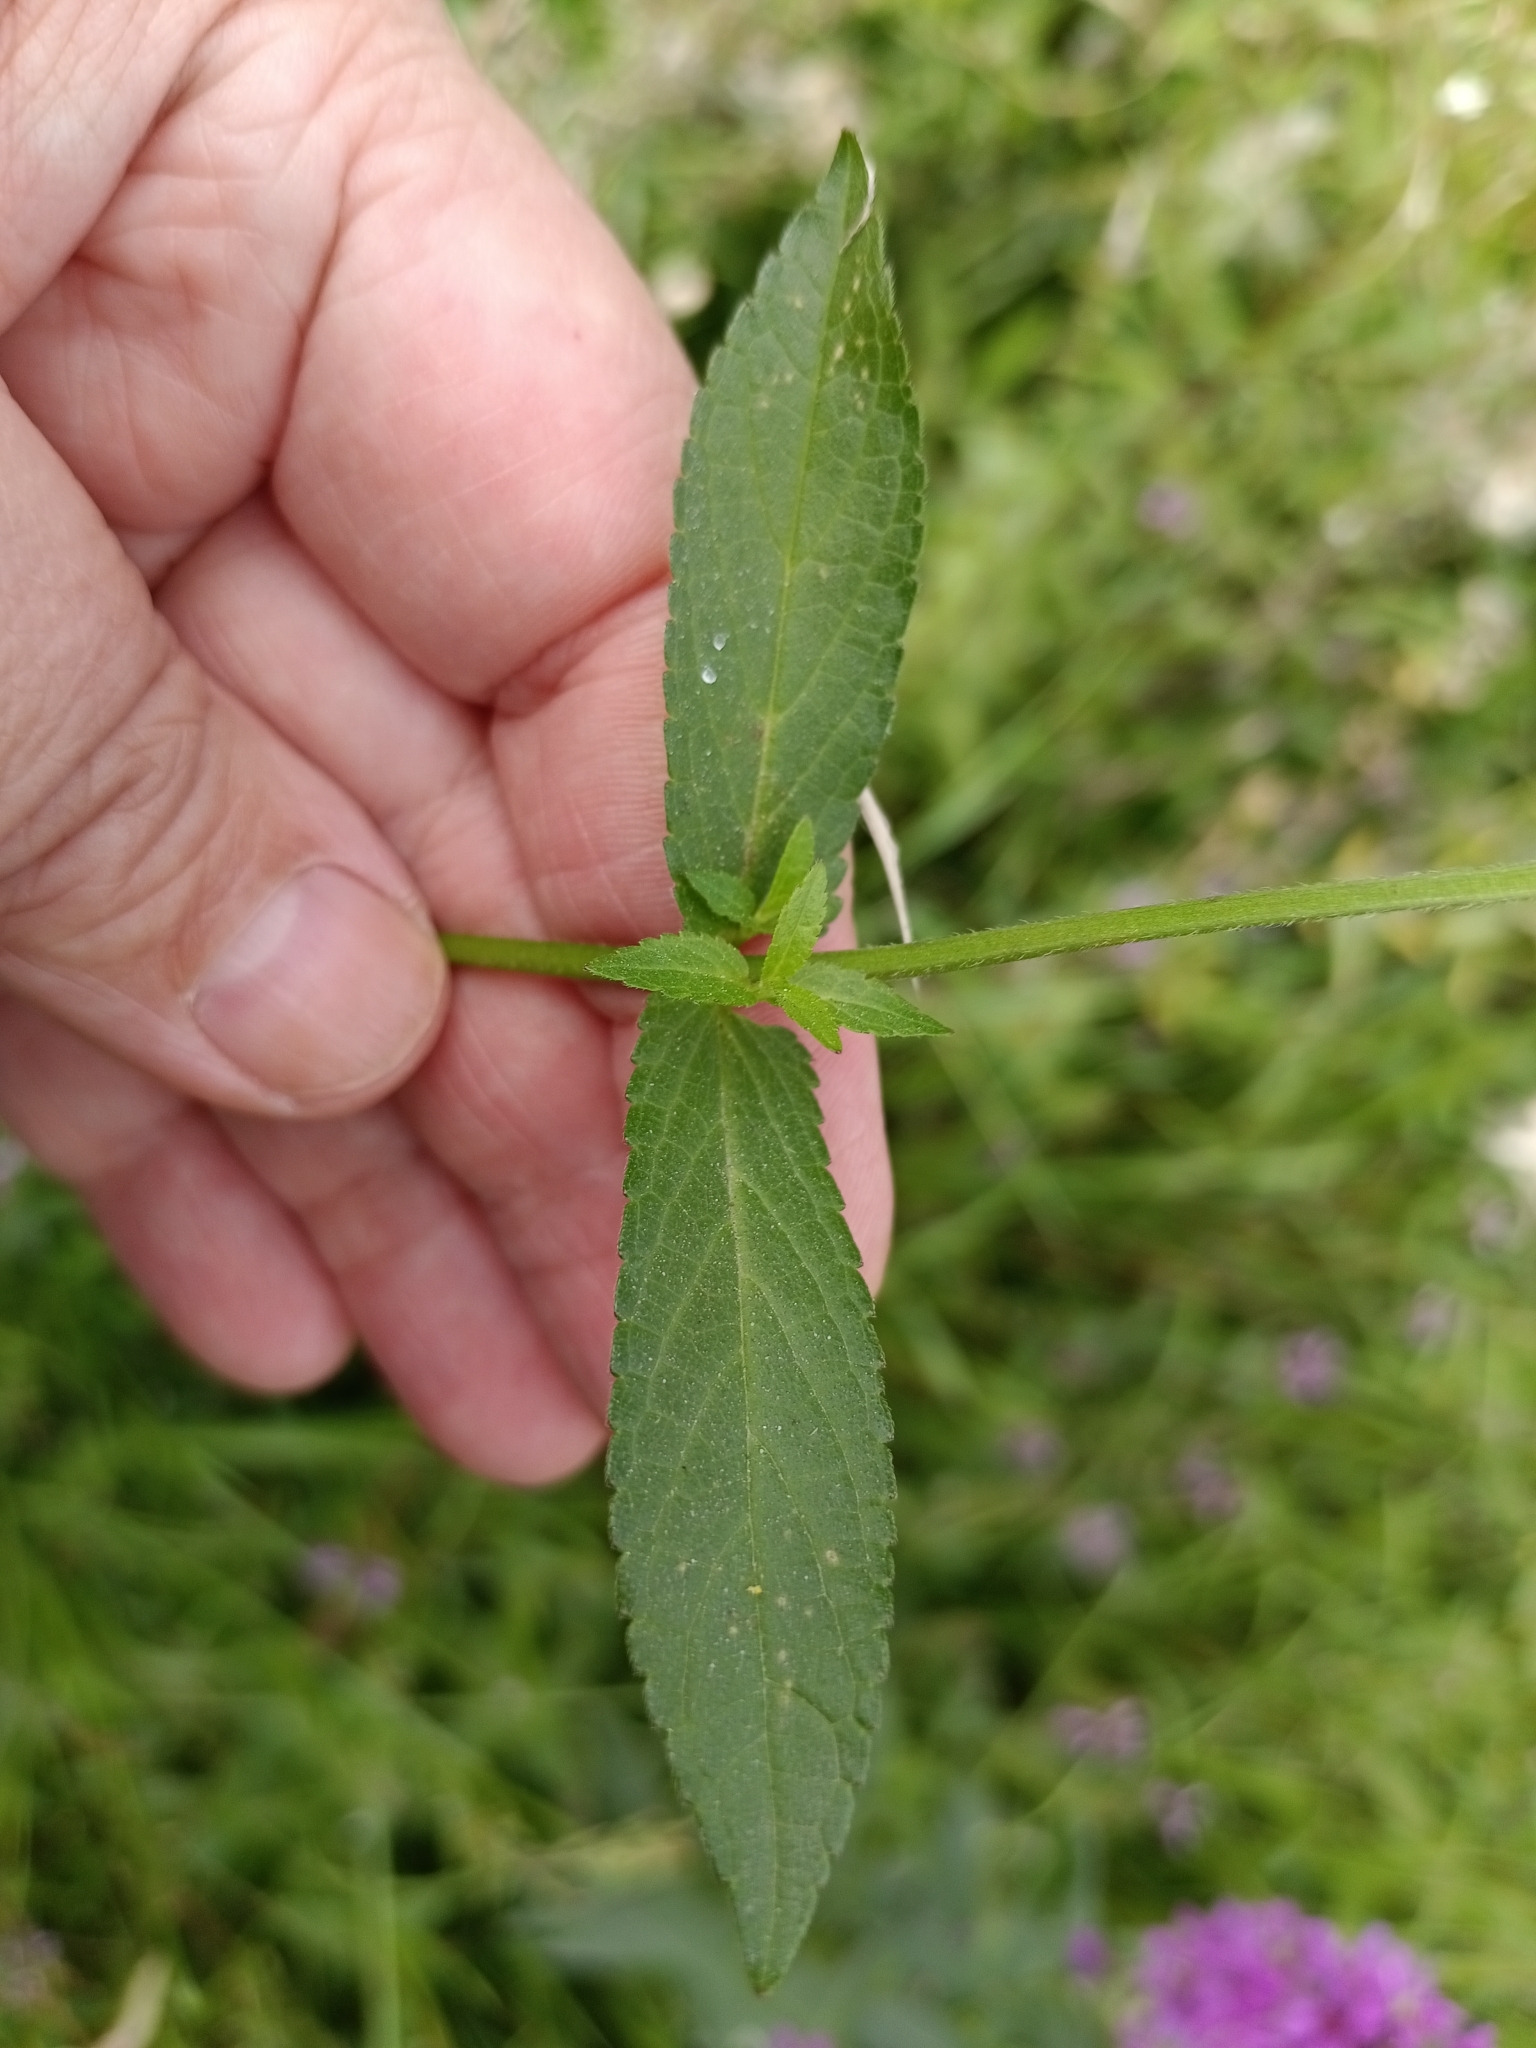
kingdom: Plantae
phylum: Tracheophyta
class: Magnoliopsida
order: Lamiales
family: Lamiaceae
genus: Stachys
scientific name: Stachys palustris
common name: Marsh woundwort
